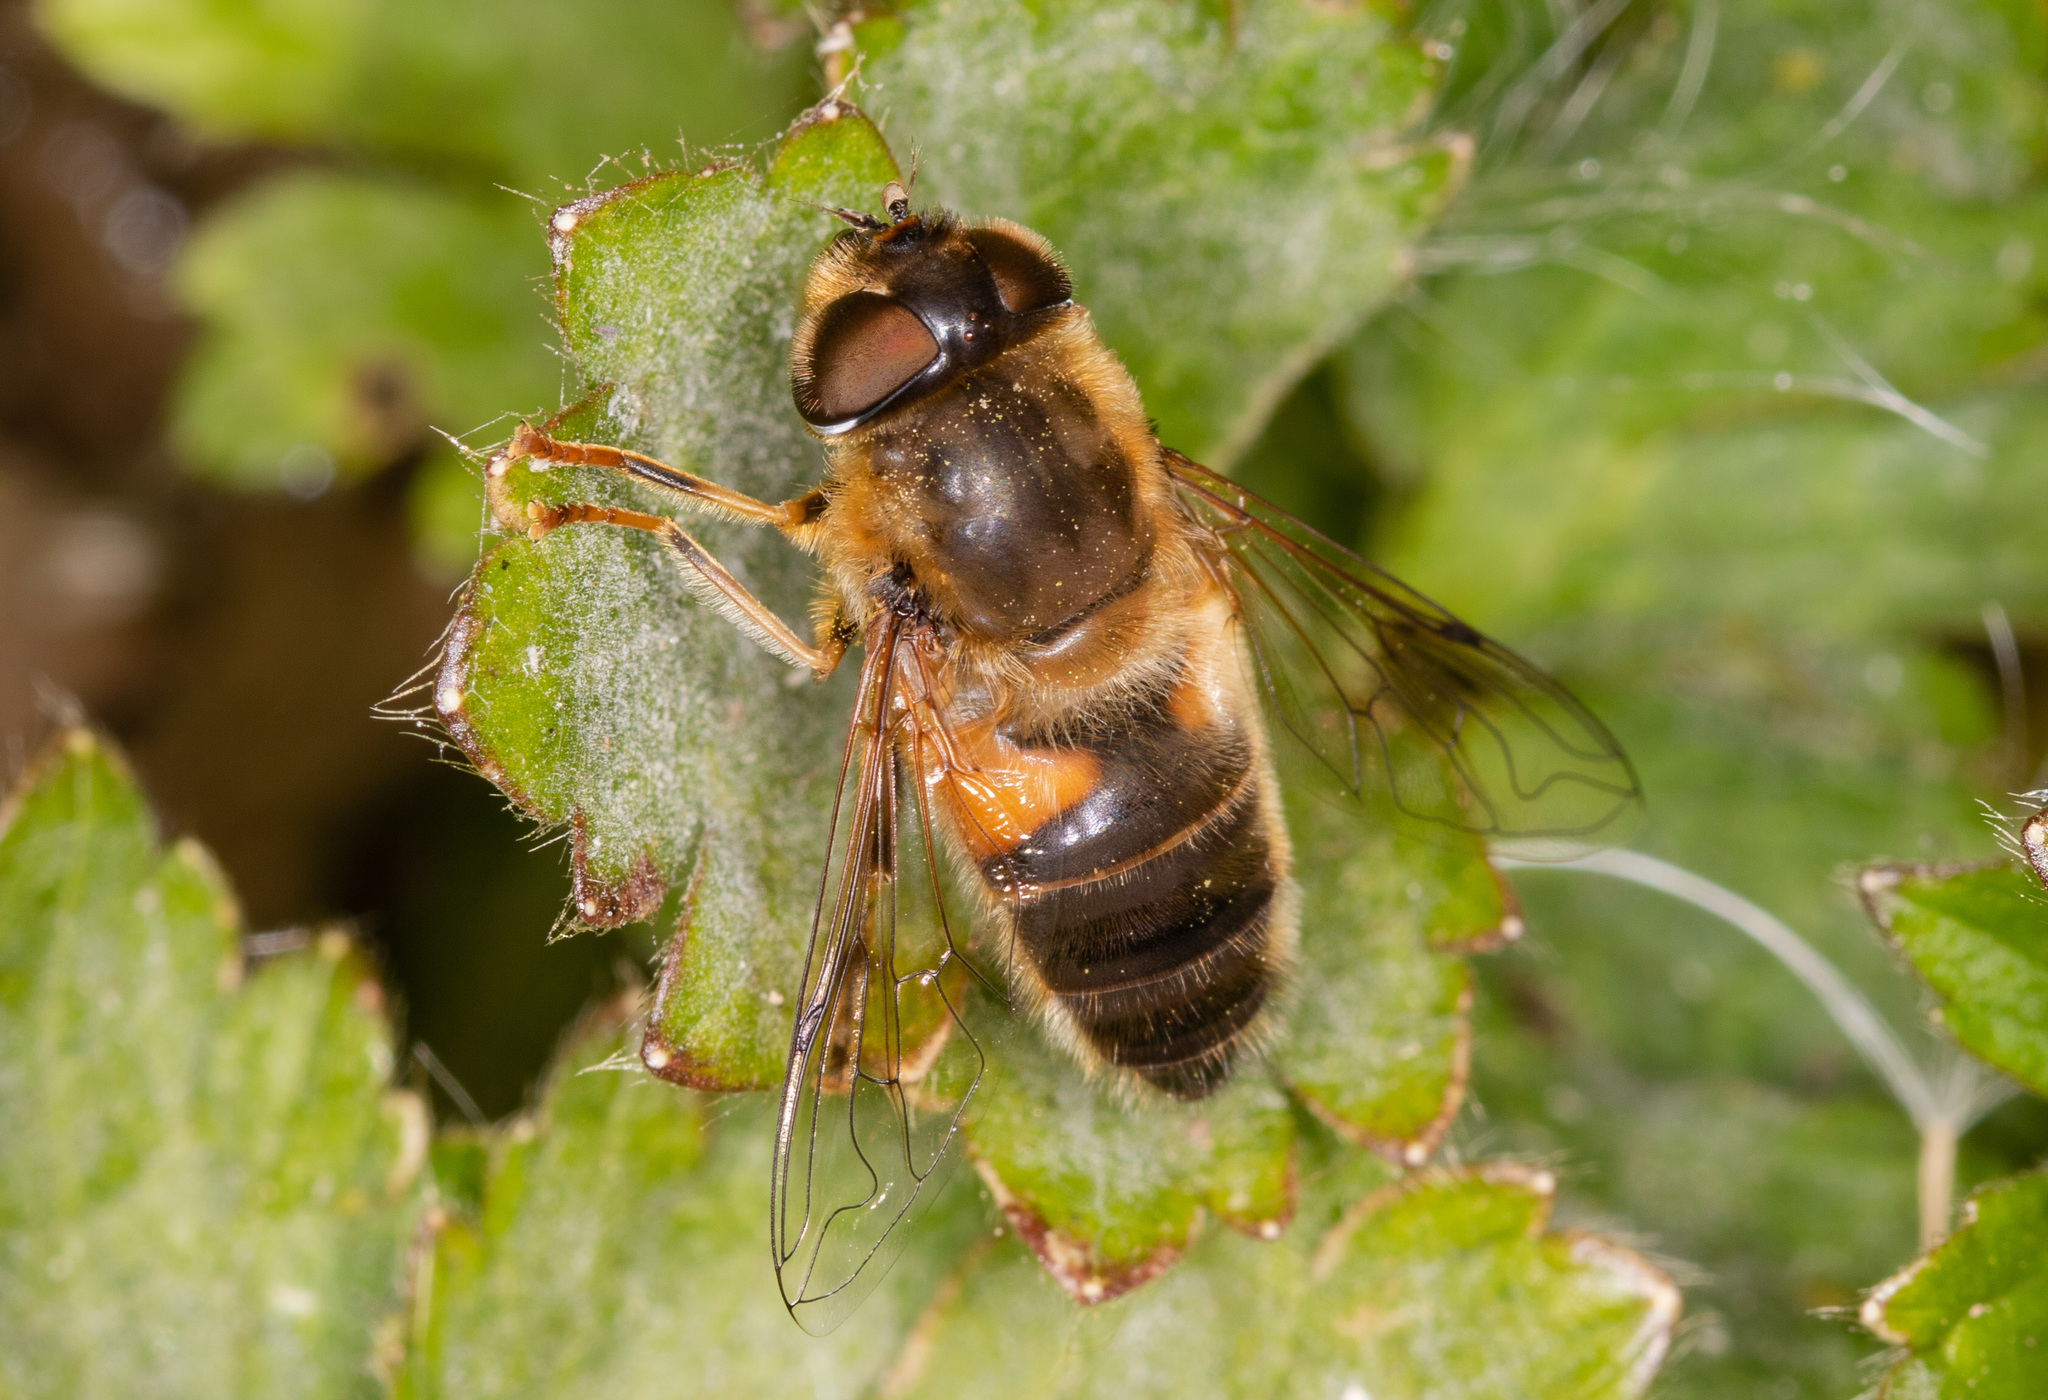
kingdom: Animalia
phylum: Arthropoda
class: Insecta
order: Diptera
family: Syrphidae
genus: Eristalis
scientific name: Eristalis pertinax
